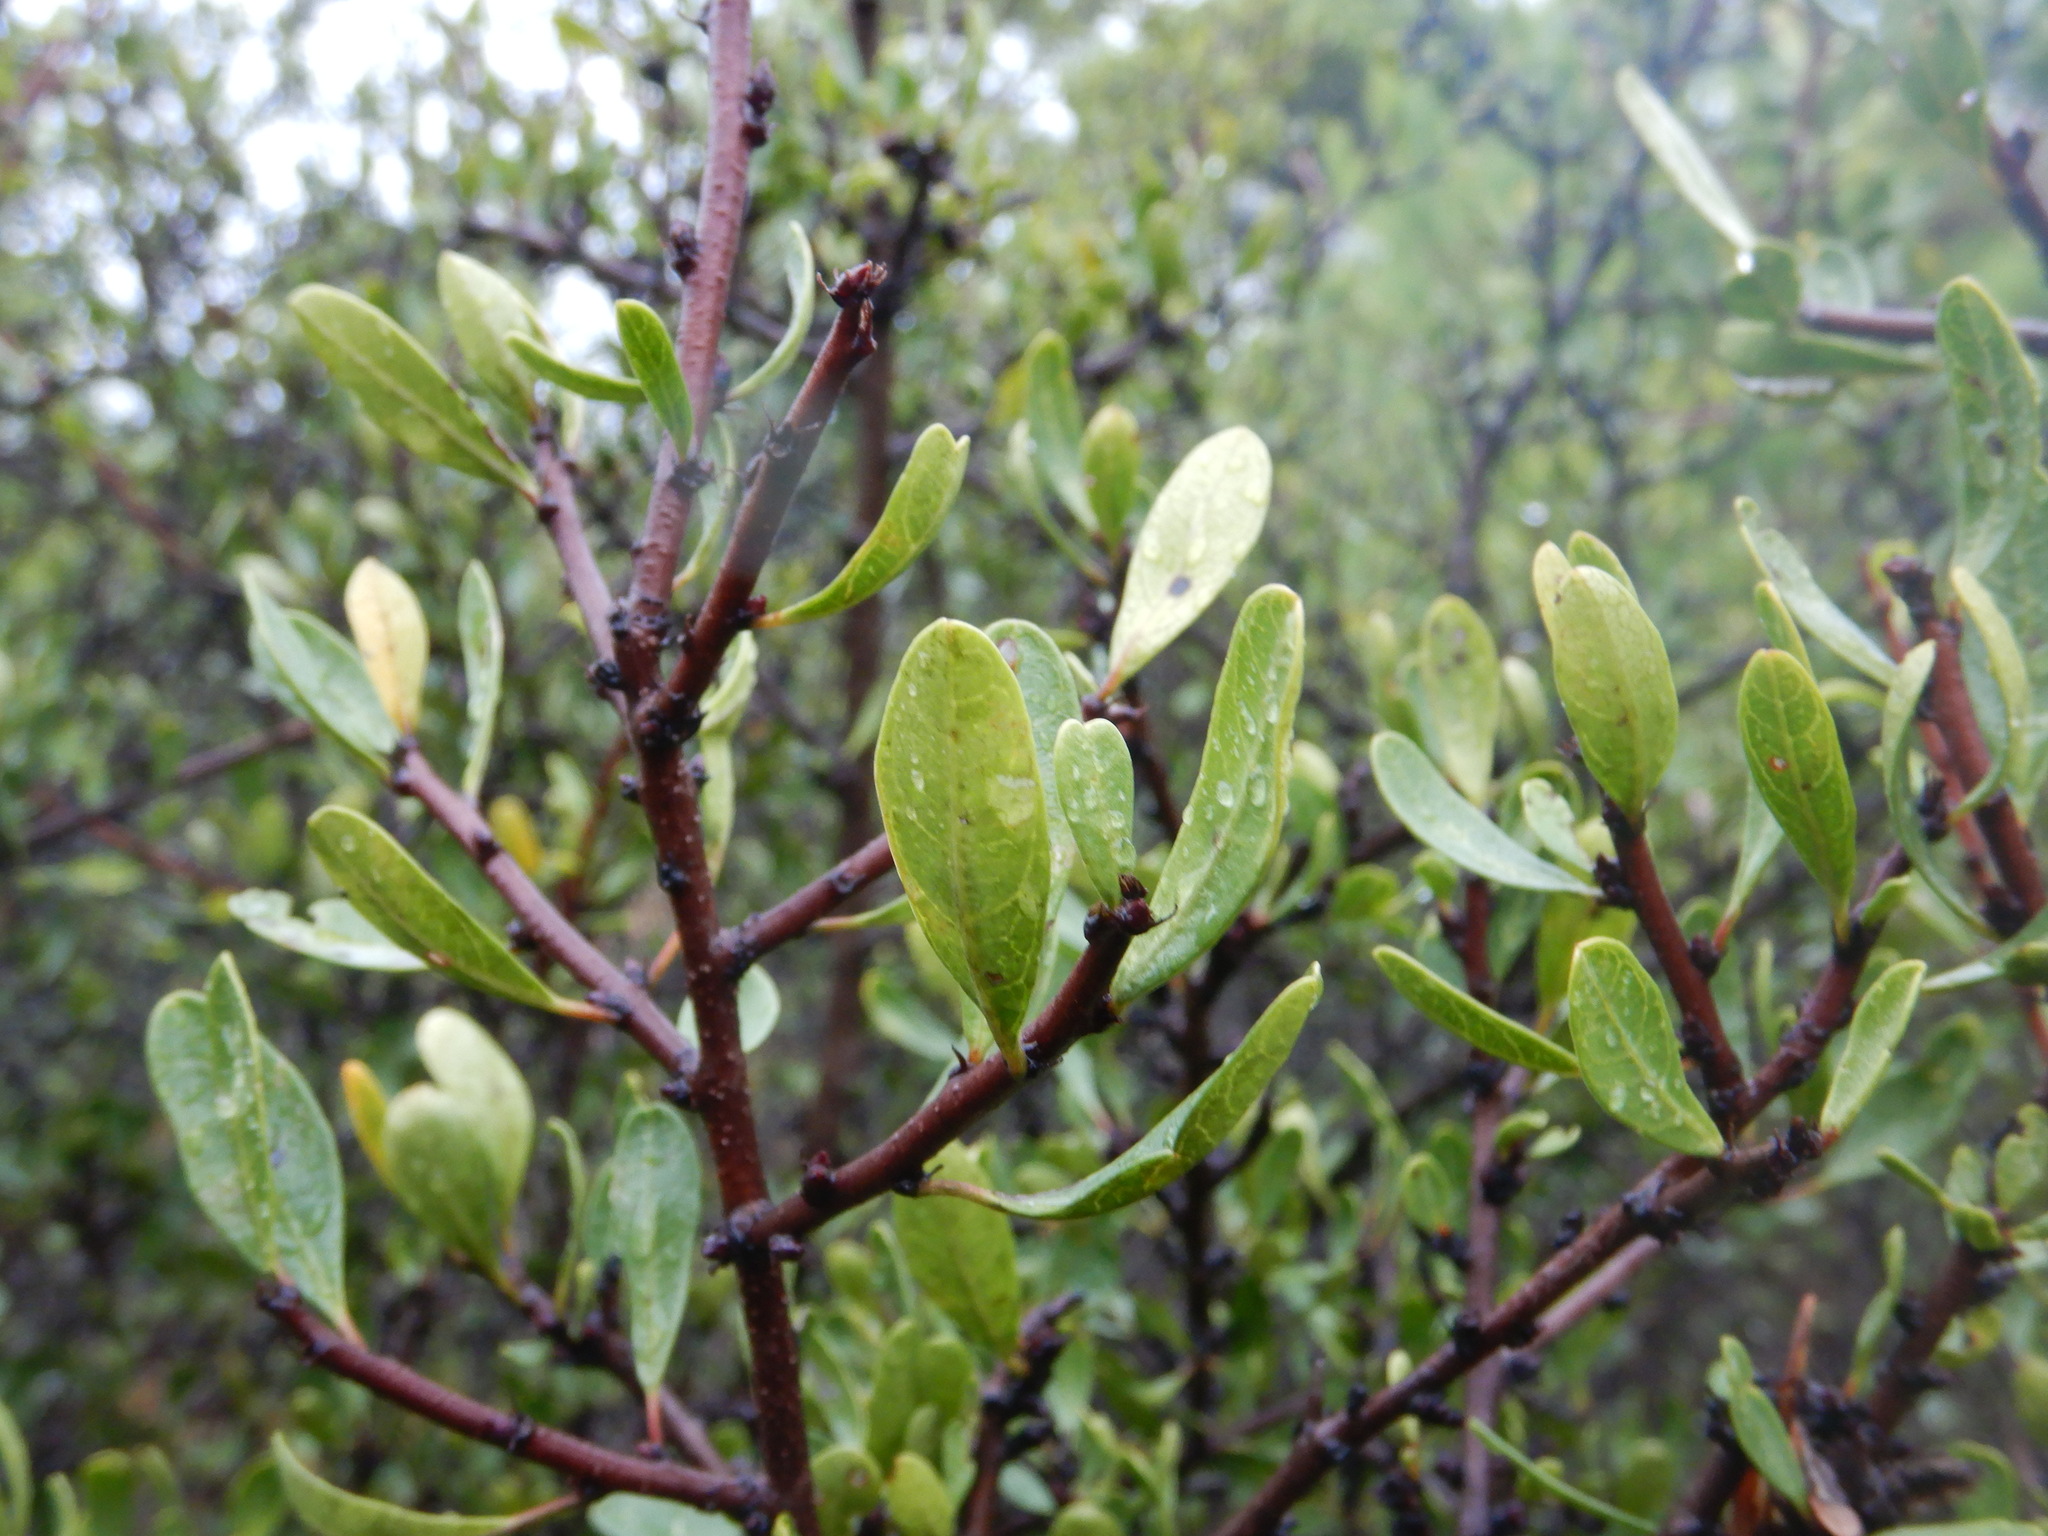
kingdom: Plantae
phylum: Tracheophyta
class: Magnoliopsida
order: Rosales
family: Rhamnaceae
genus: Rhamnus
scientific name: Rhamnus oleoides
